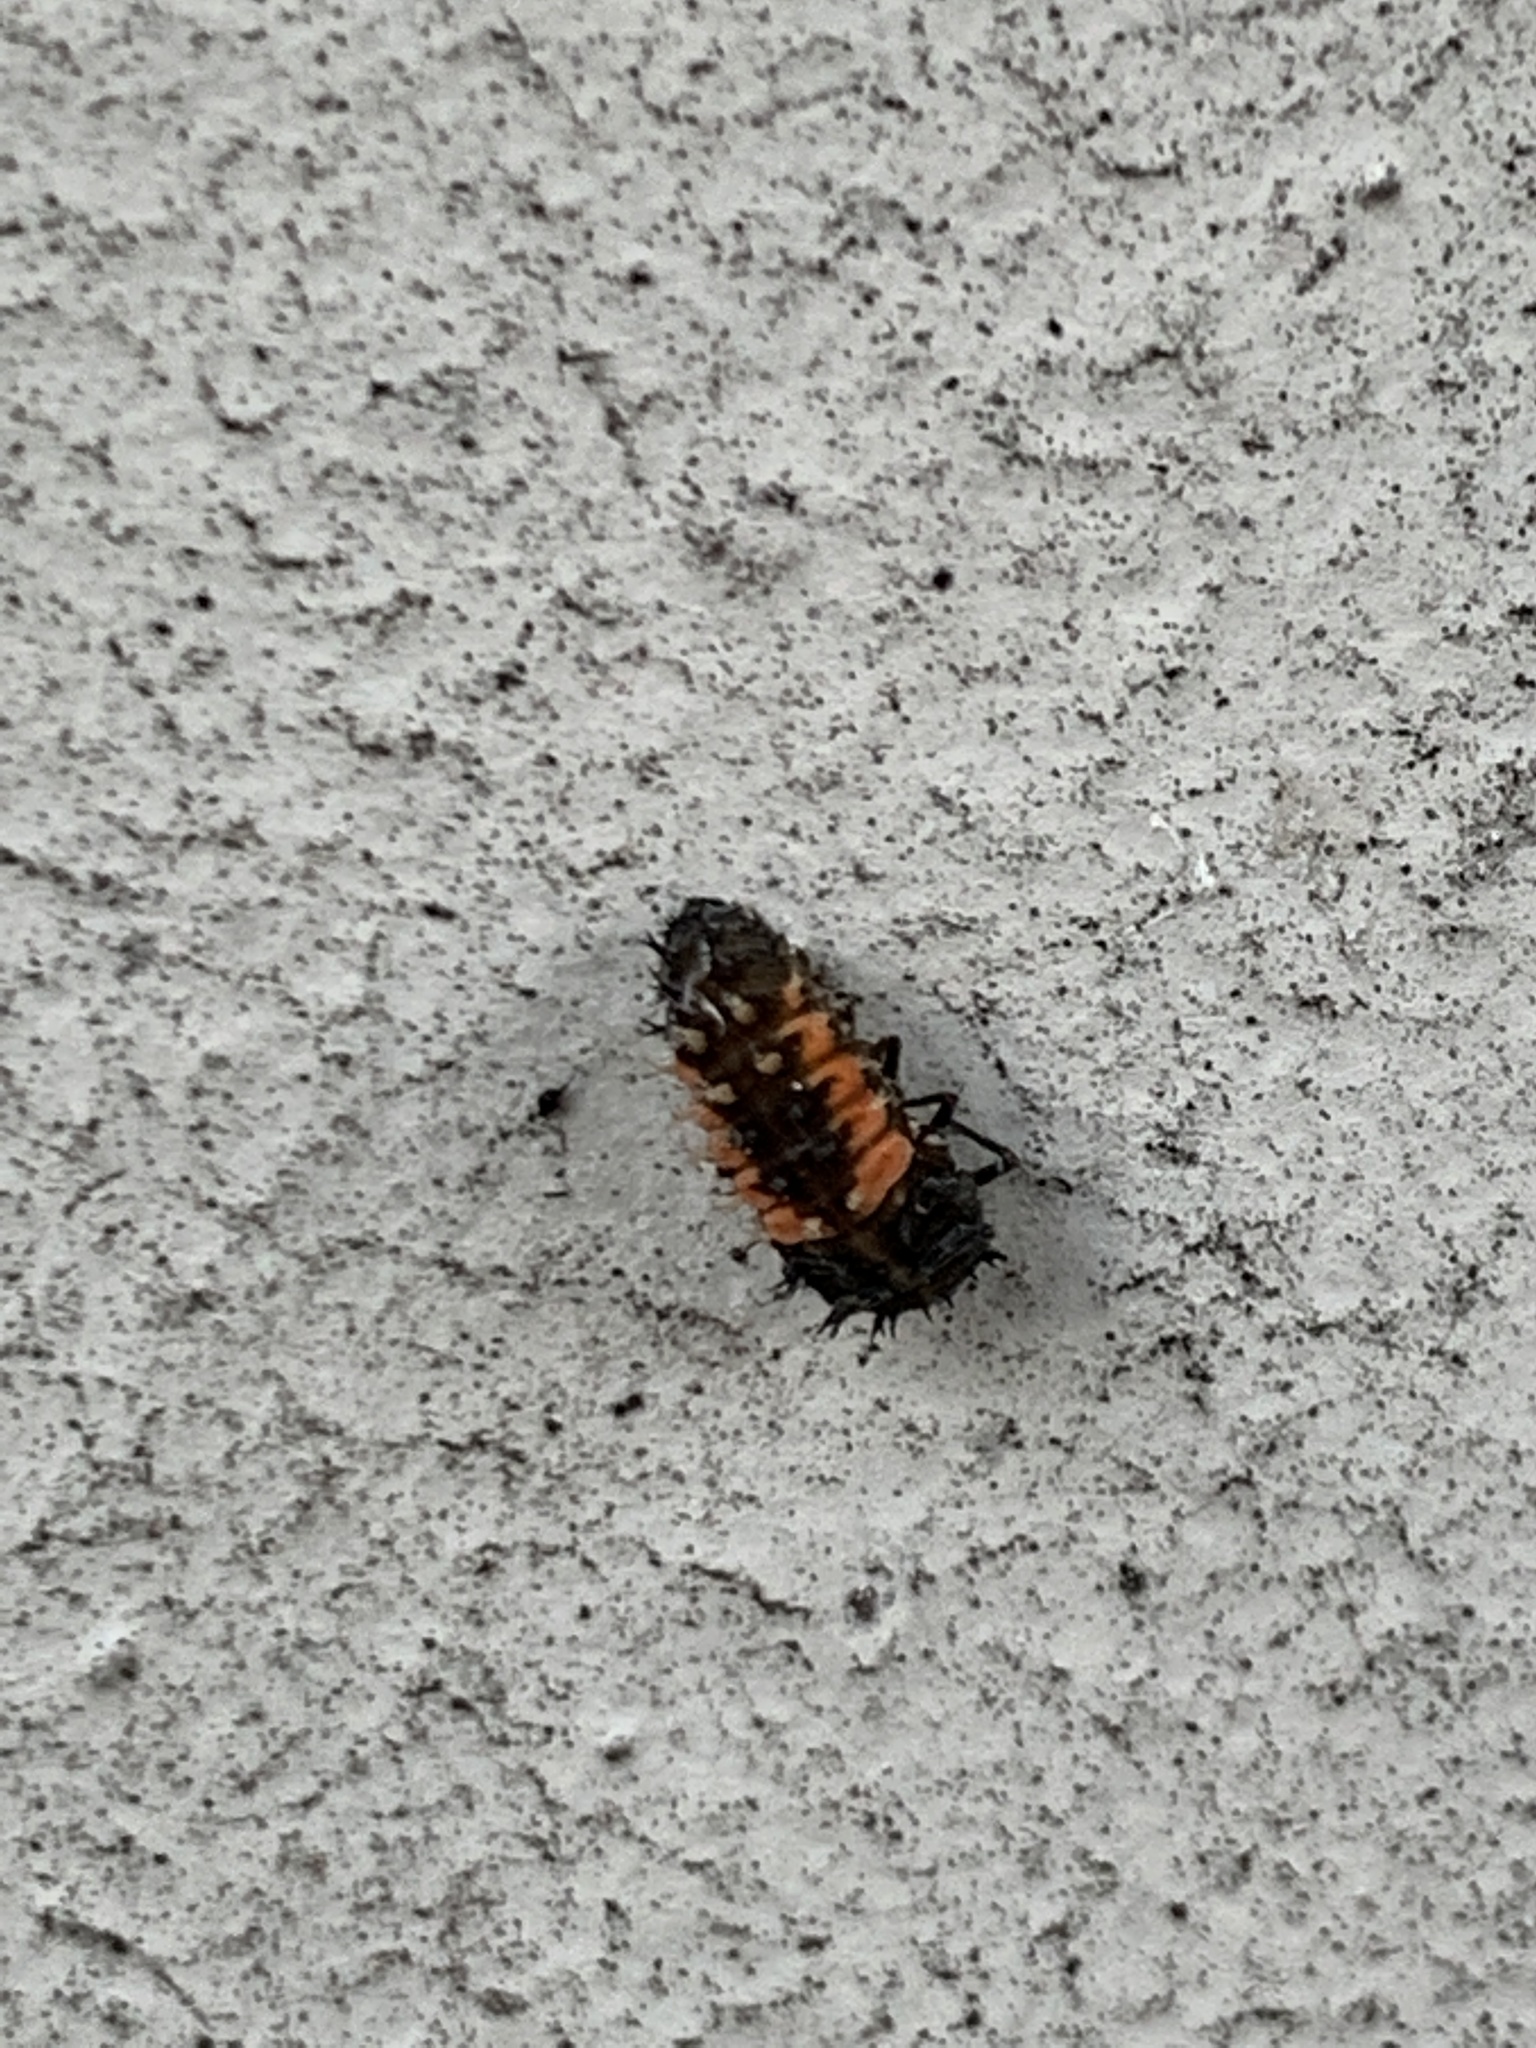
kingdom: Animalia
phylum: Arthropoda
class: Insecta
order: Coleoptera
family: Coccinellidae
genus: Harmonia
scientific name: Harmonia axyridis
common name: Harlequin ladybird
